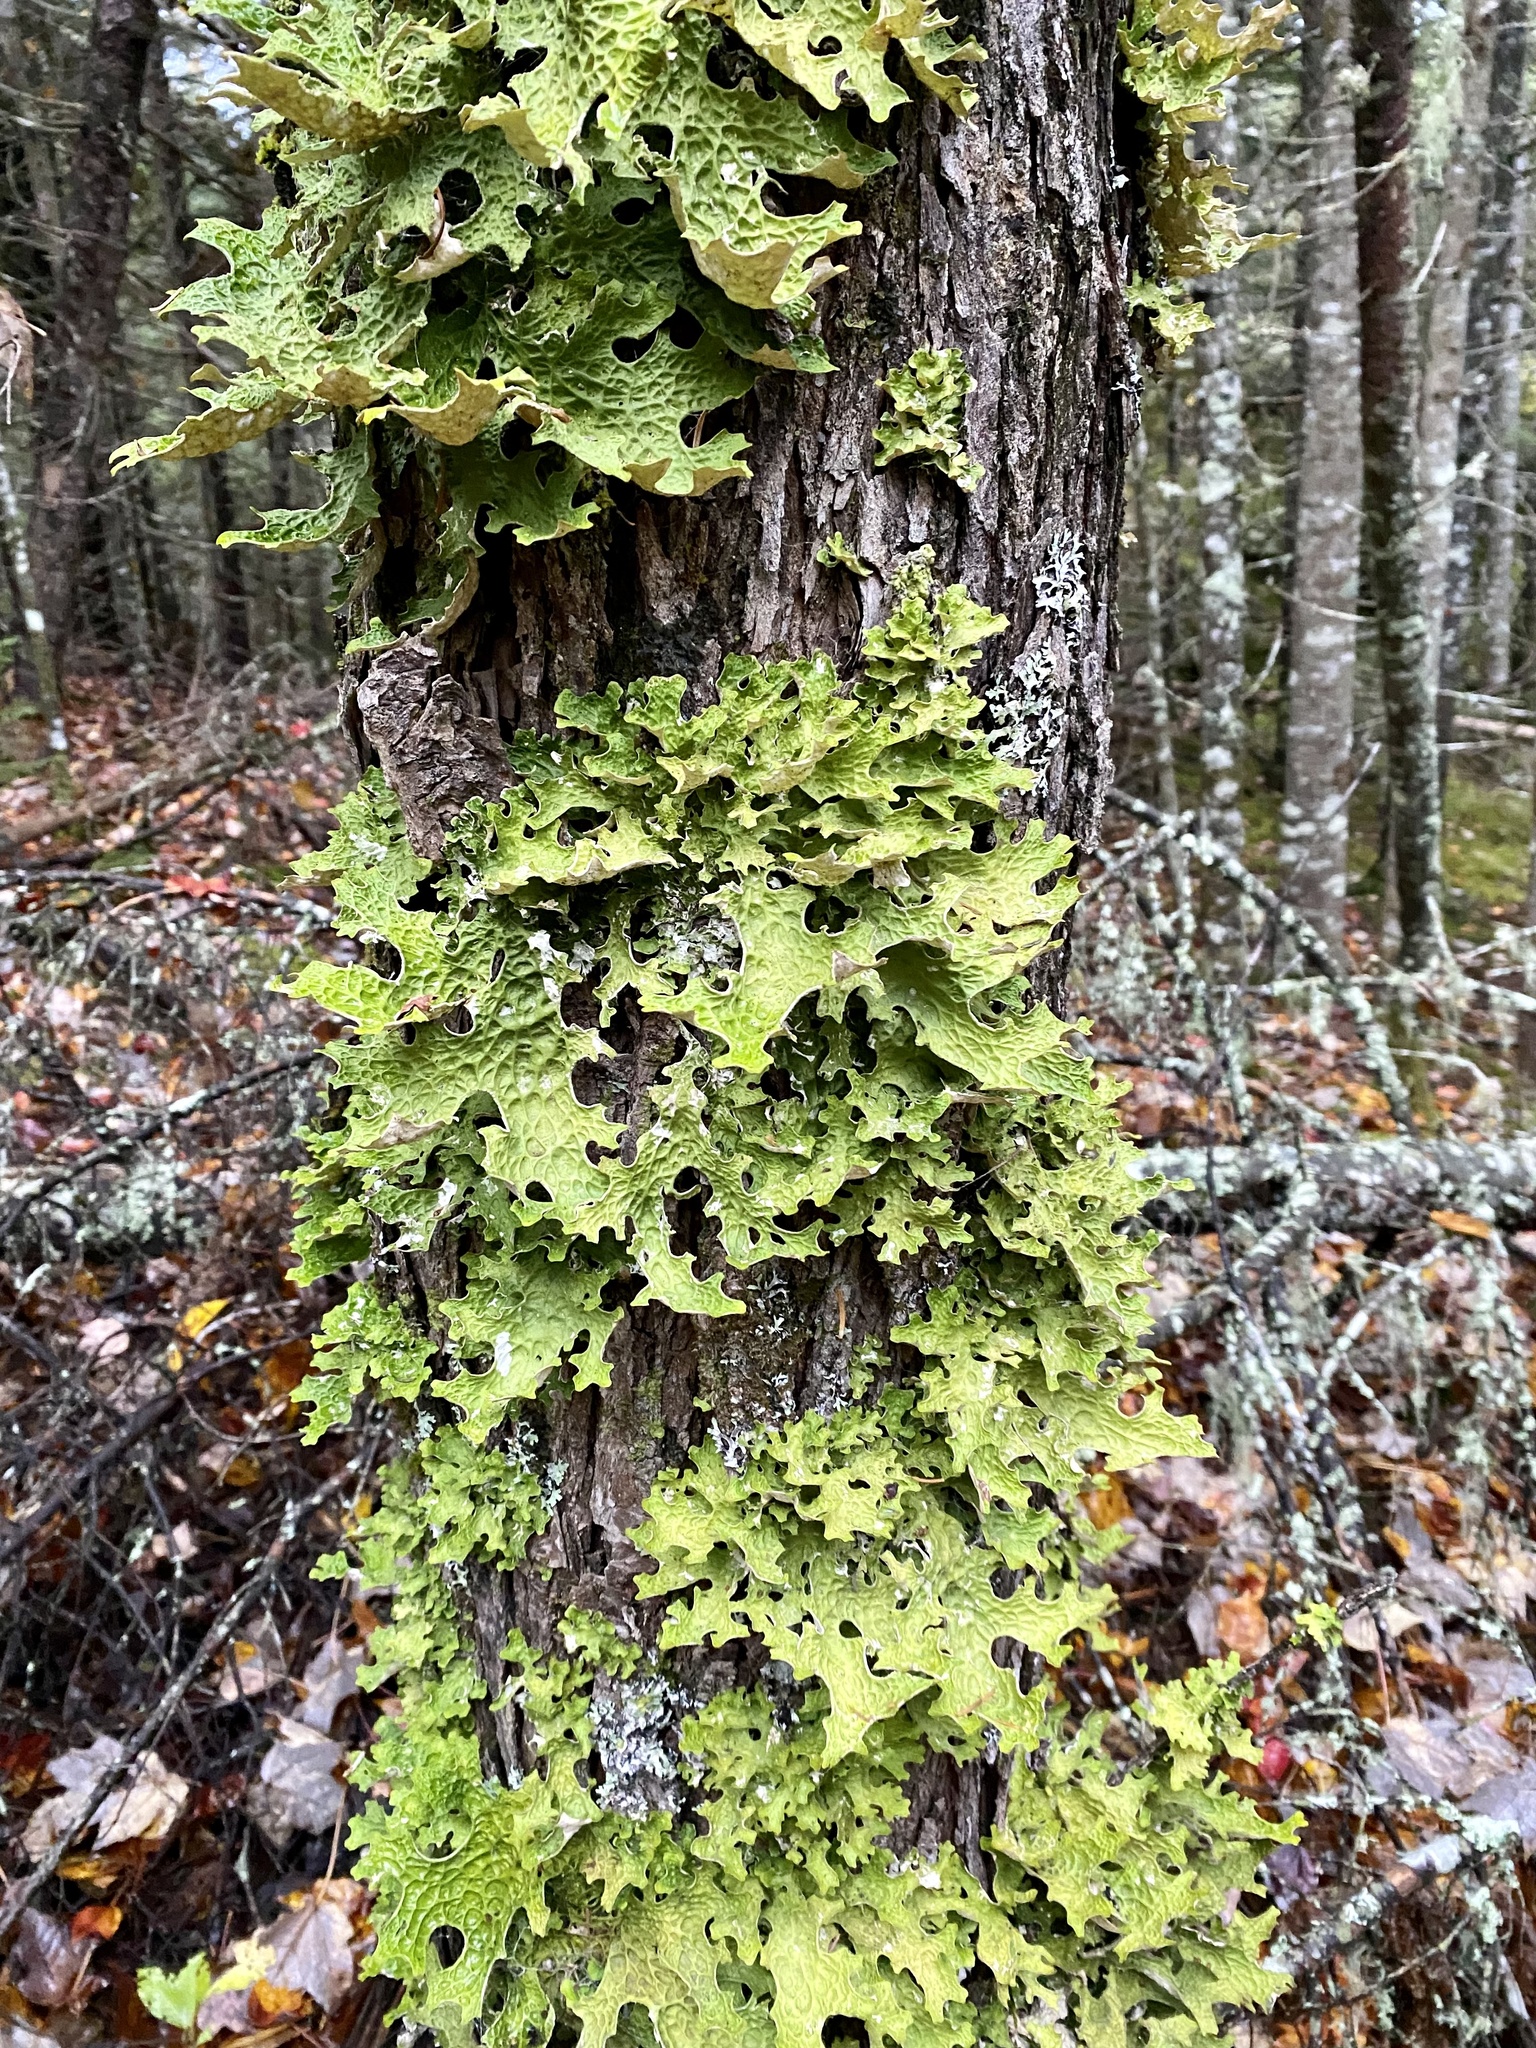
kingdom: Fungi
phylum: Ascomycota
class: Lecanoromycetes
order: Peltigerales
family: Lobariaceae
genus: Lobaria
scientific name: Lobaria pulmonaria
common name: Lungwort
